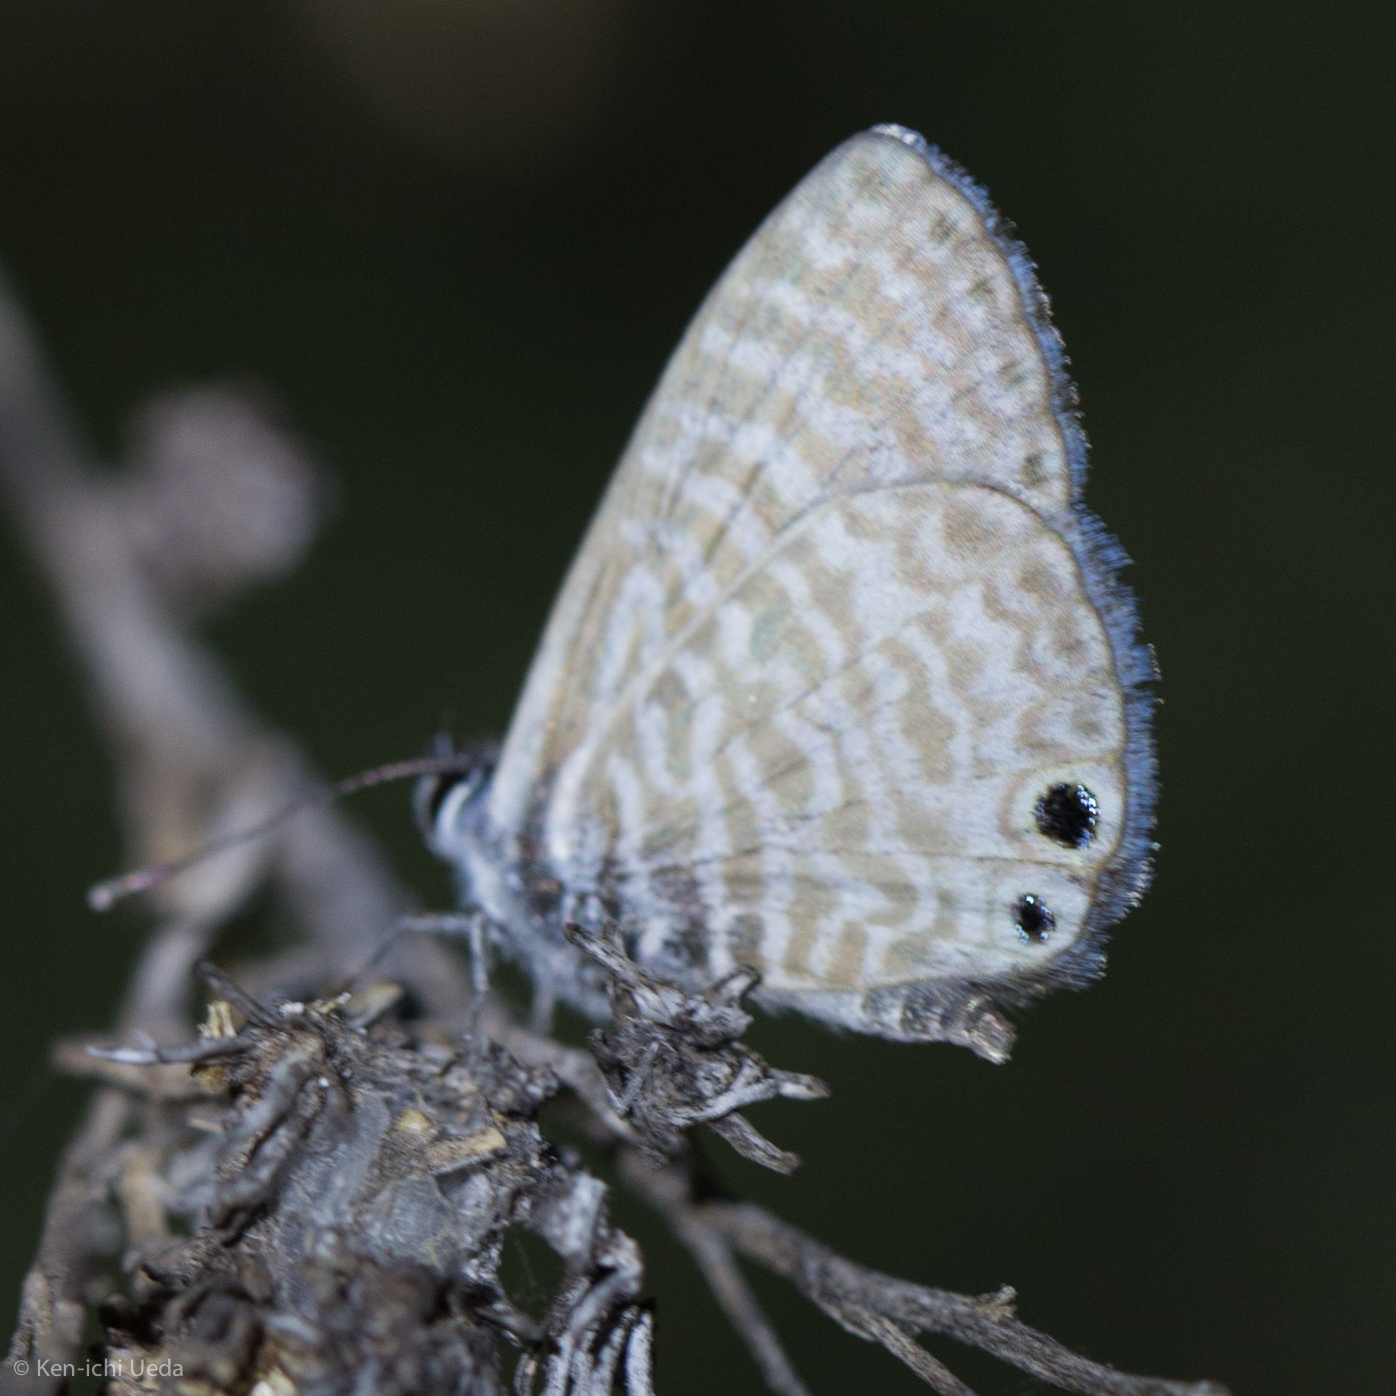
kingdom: Animalia
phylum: Arthropoda
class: Insecta
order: Lepidoptera
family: Lycaenidae
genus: Leptotes
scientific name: Leptotes marina
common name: Marine blue
